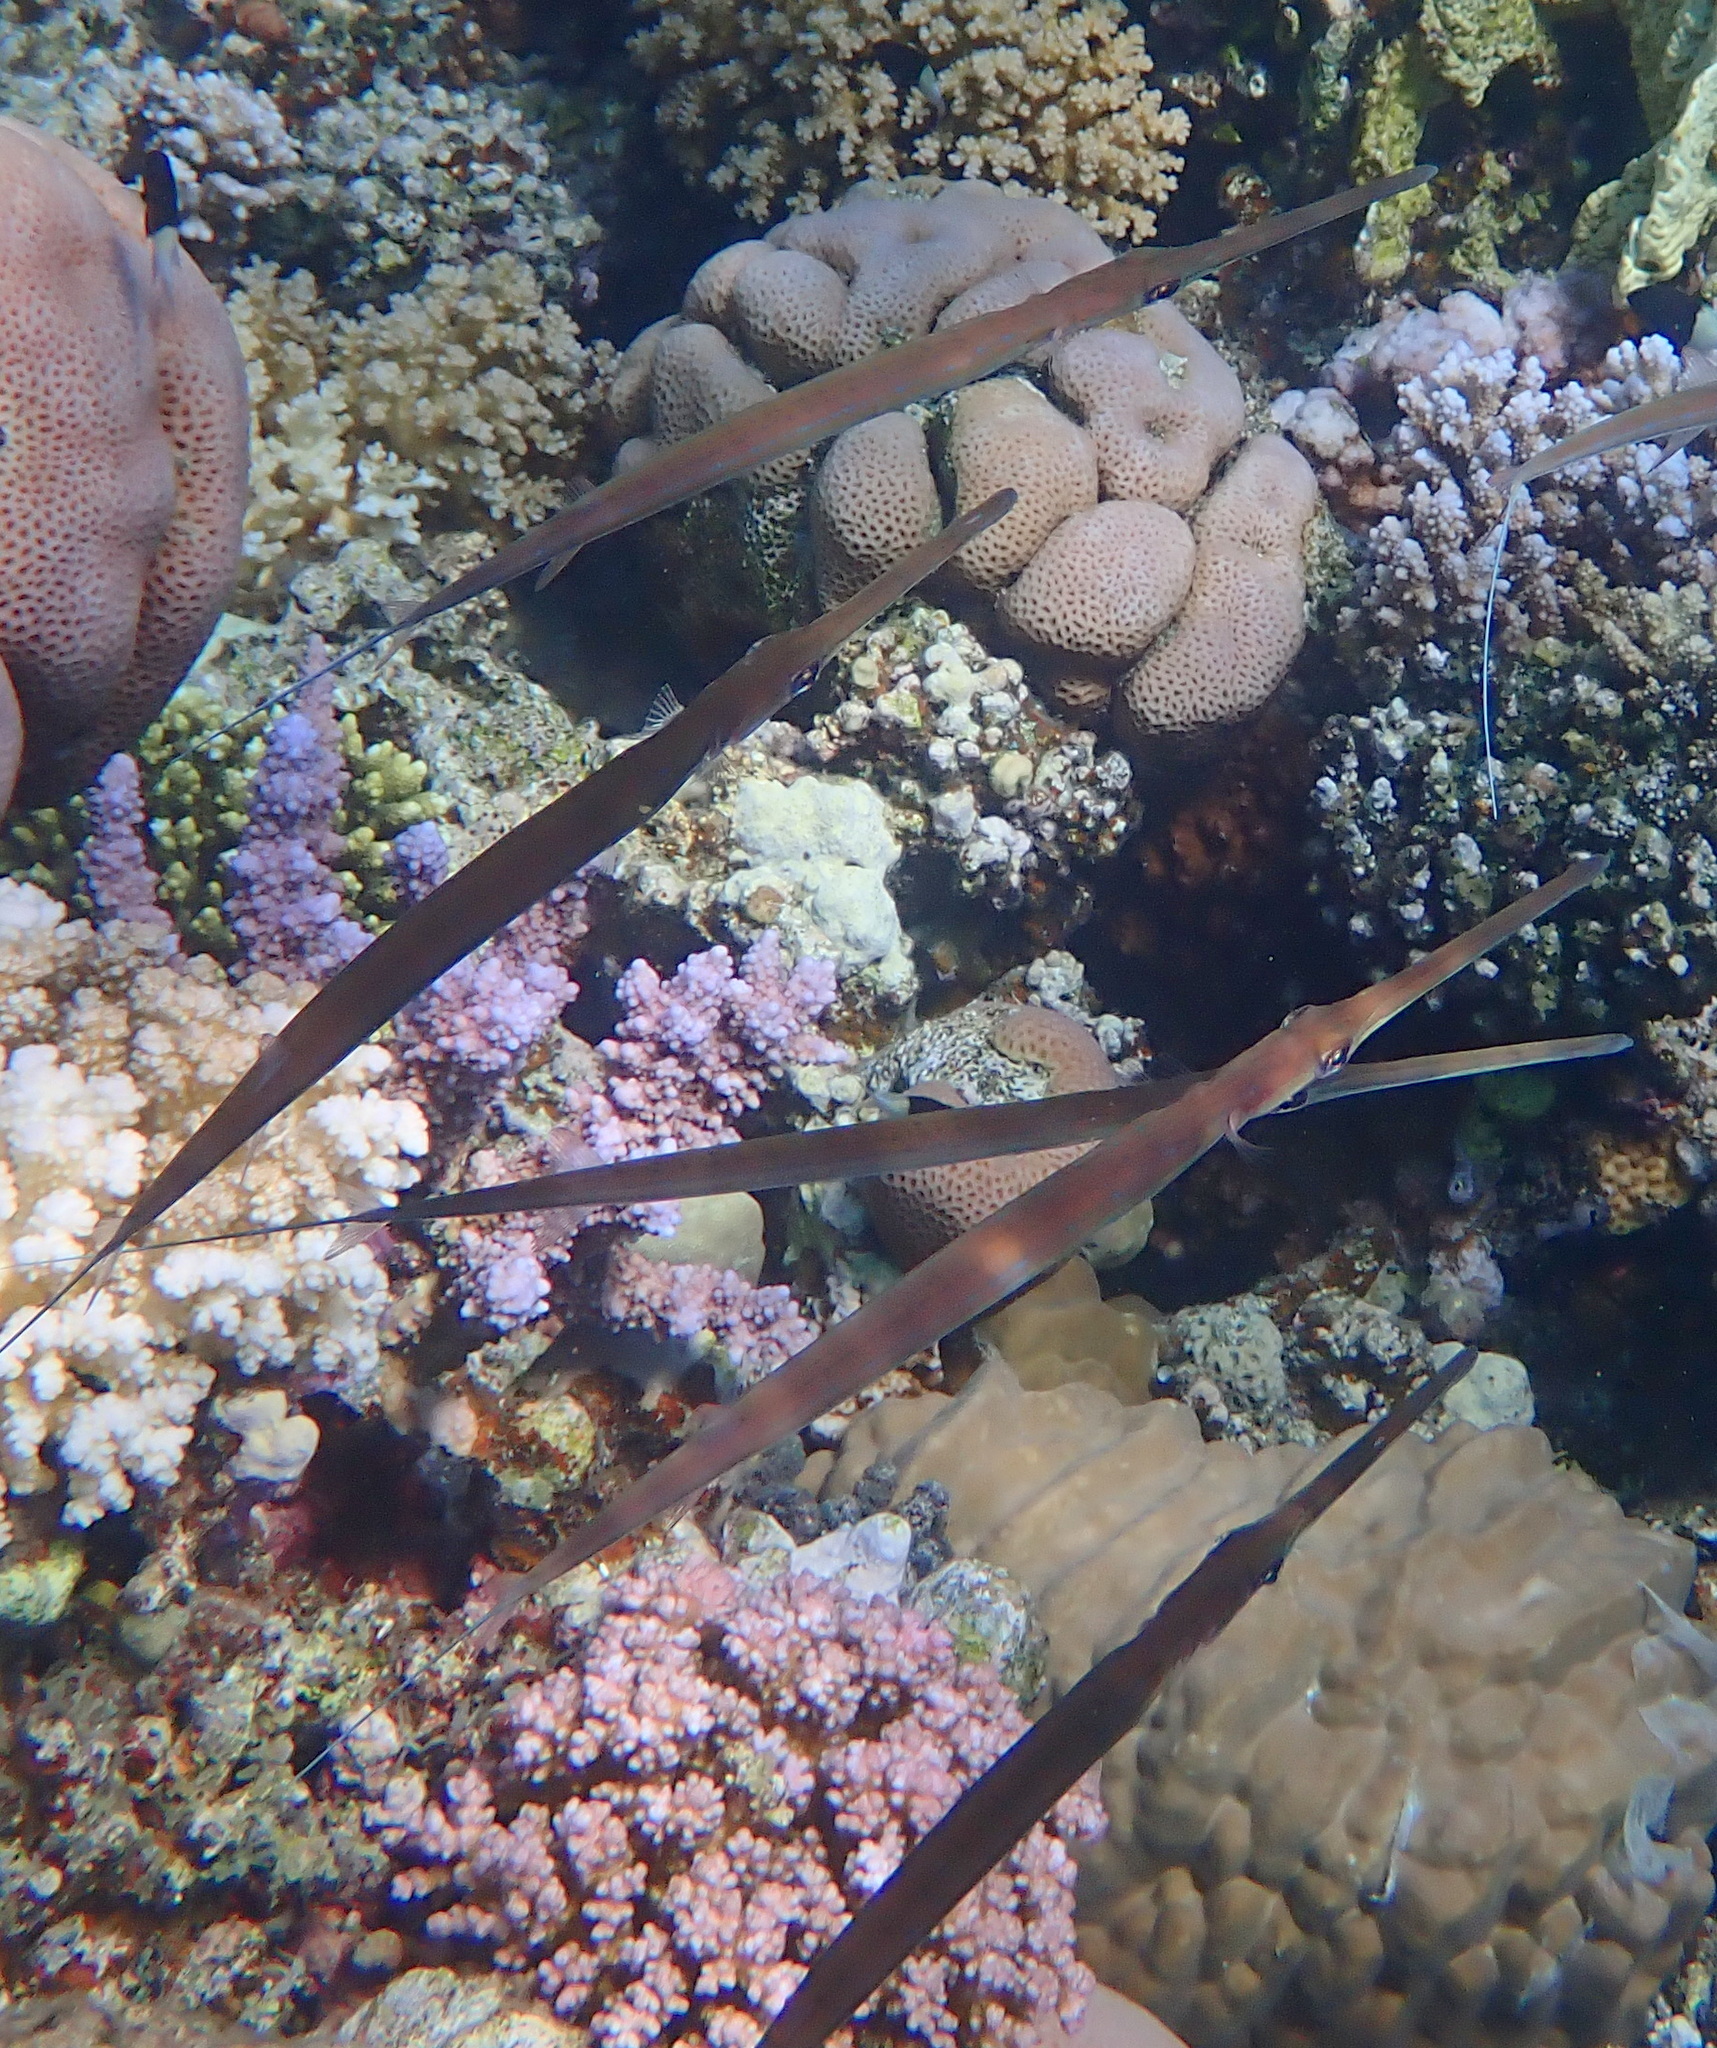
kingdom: Animalia
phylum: Chordata
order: Syngnathiformes
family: Fistulariidae
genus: Fistularia
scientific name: Fistularia commersonii
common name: Bluespotted cornetfish
